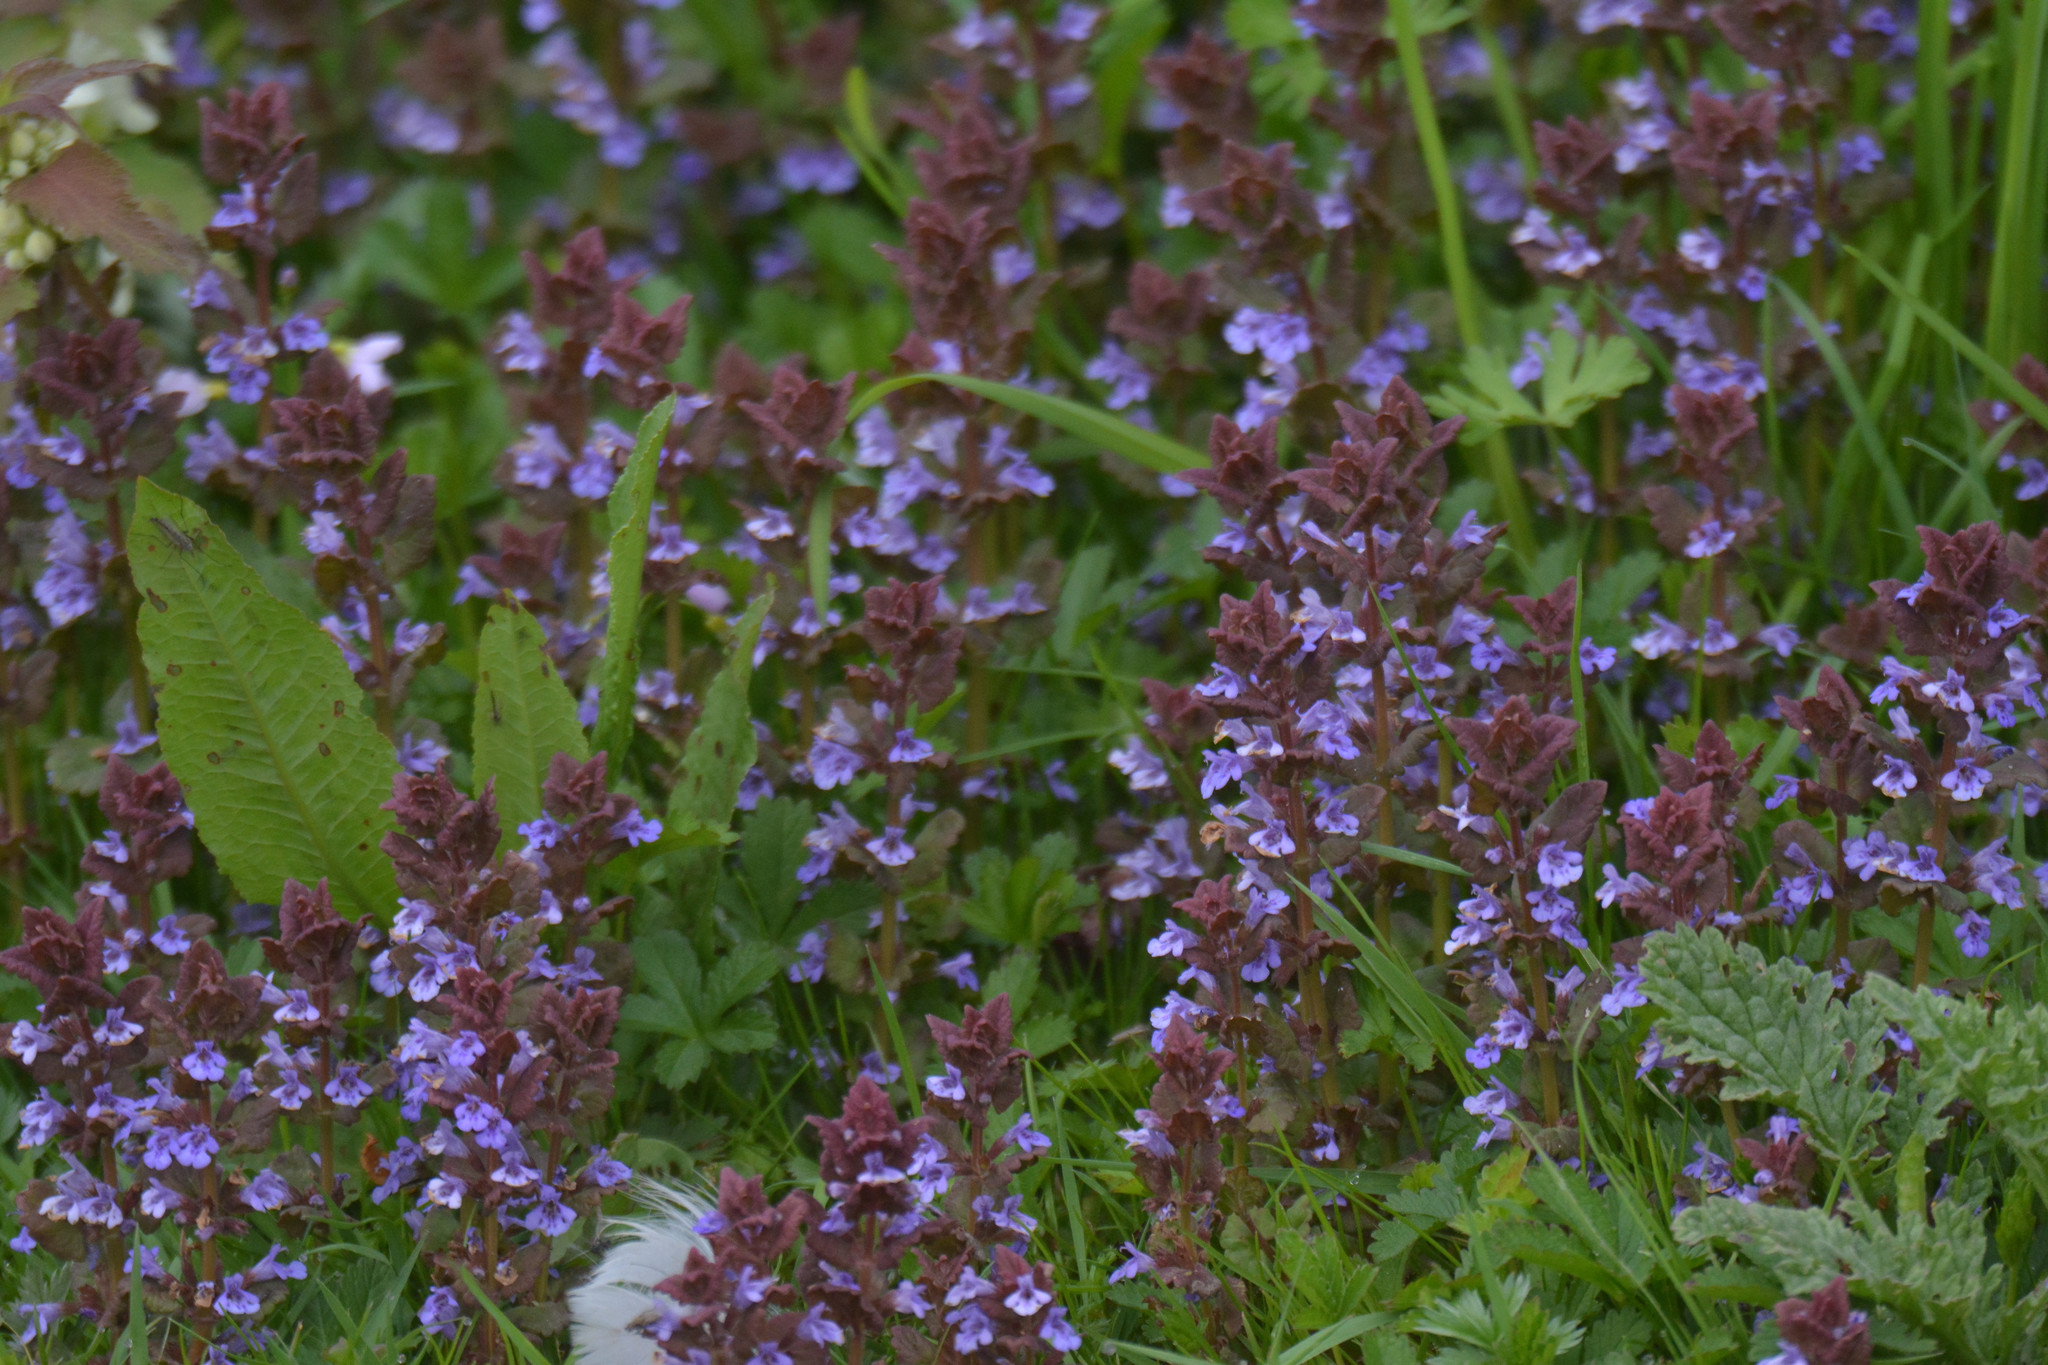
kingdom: Plantae
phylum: Tracheophyta
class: Magnoliopsida
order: Lamiales
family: Lamiaceae
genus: Glechoma
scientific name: Glechoma hederacea
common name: Ground ivy
